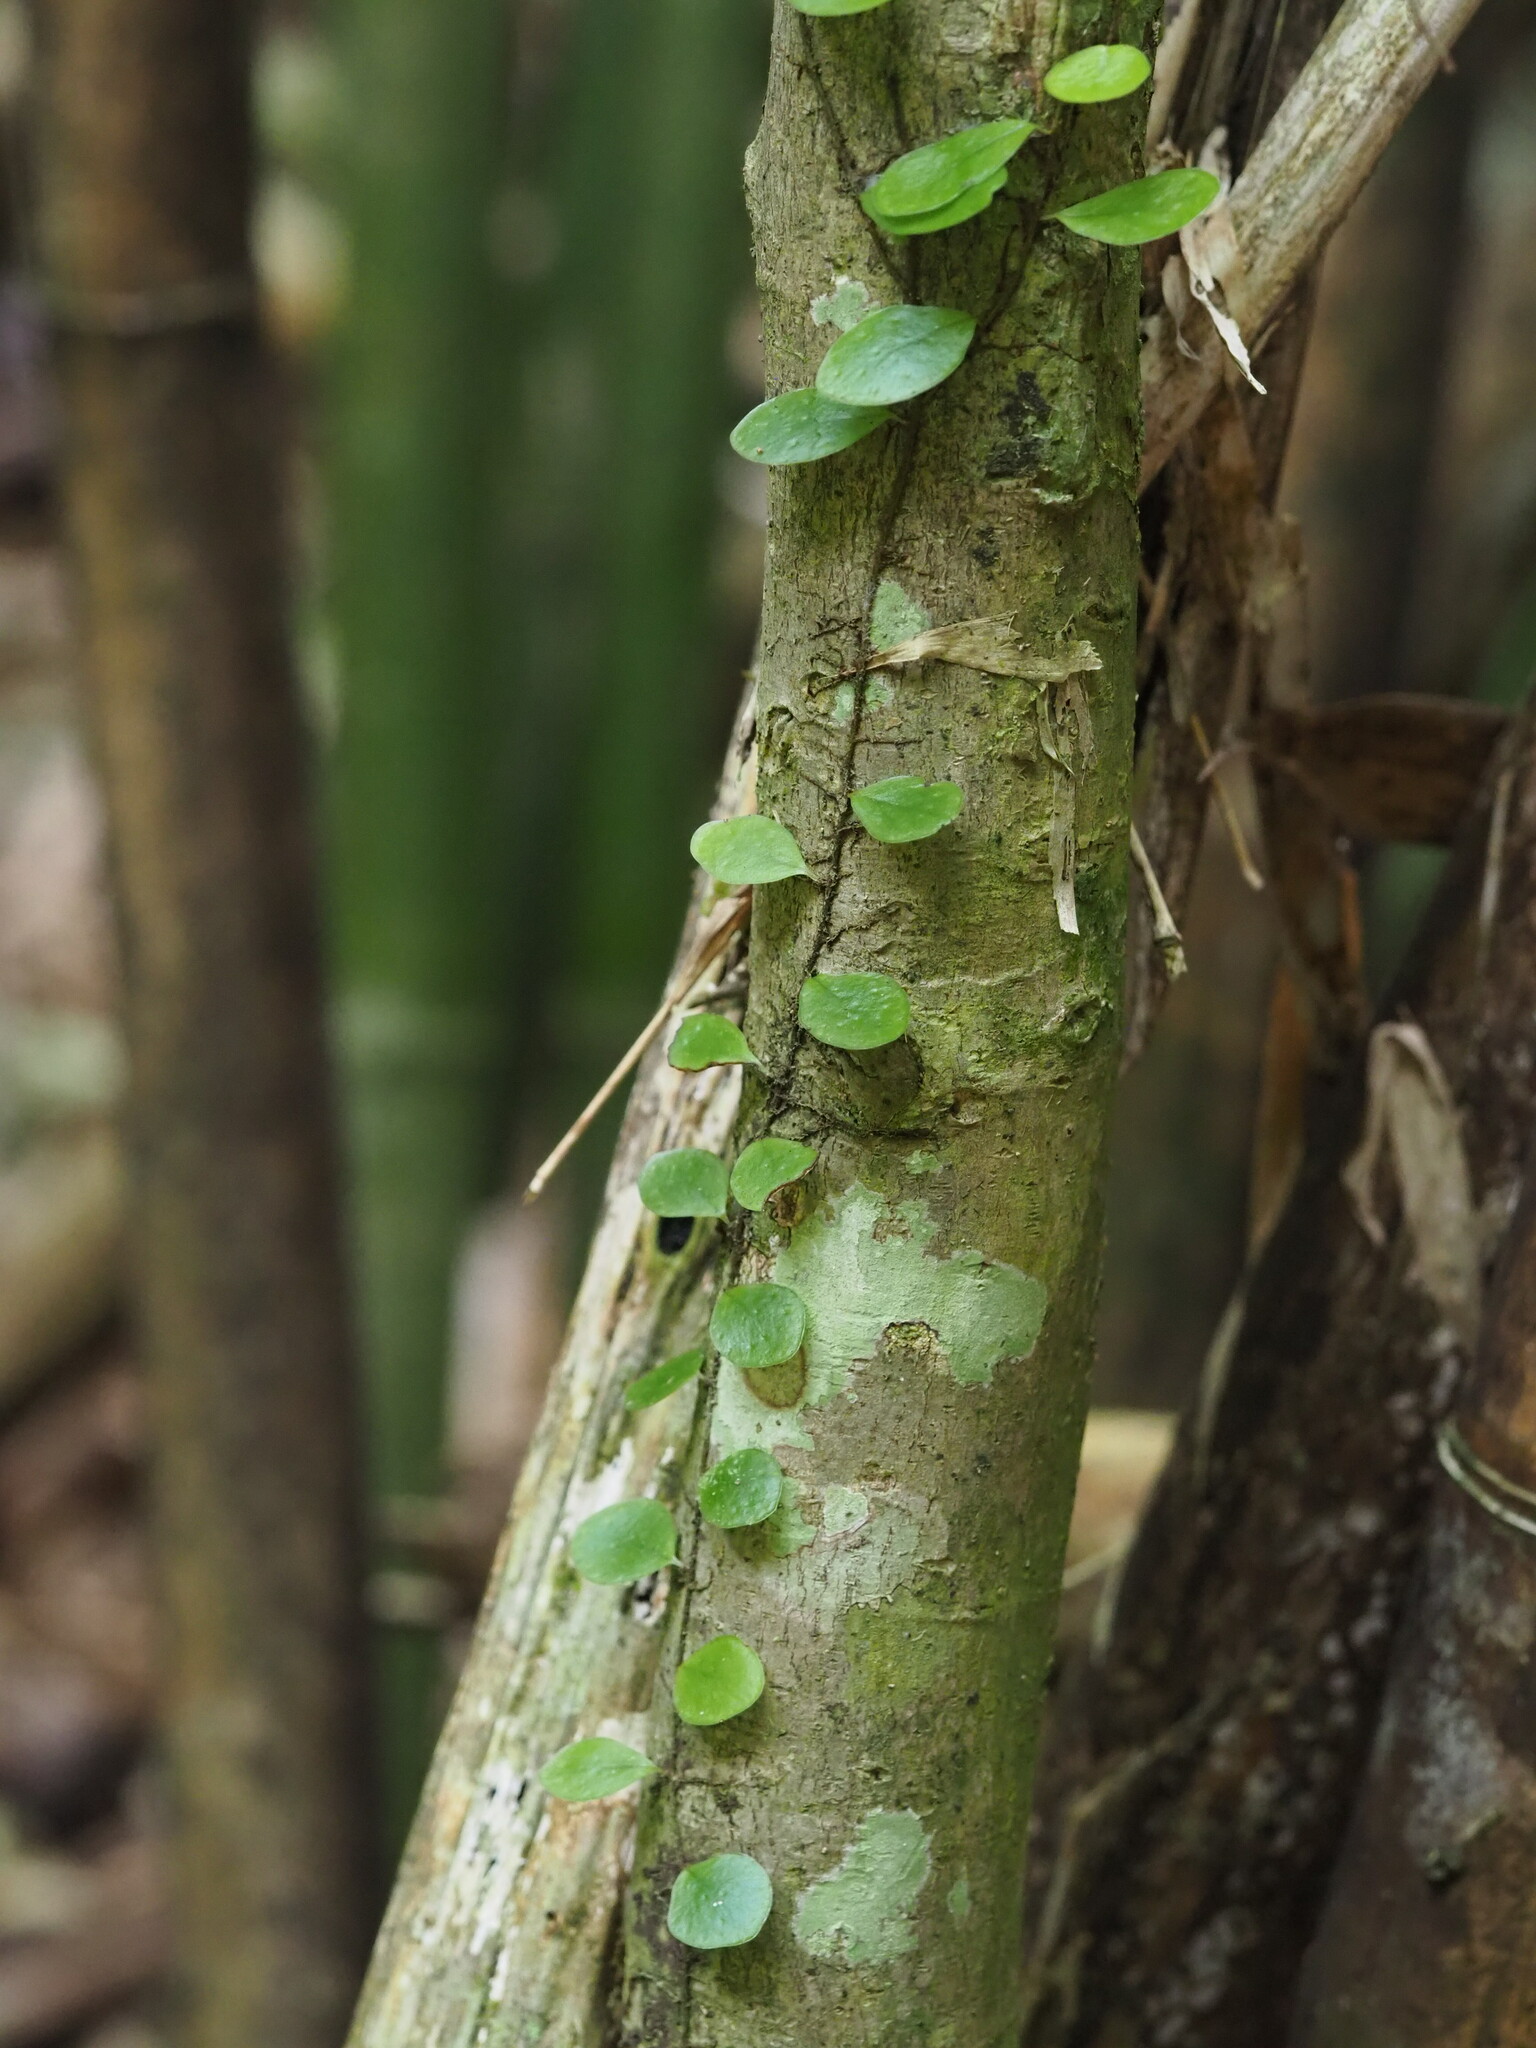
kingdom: Plantae
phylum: Tracheophyta
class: Polypodiopsida
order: Polypodiales
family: Polypodiaceae
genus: Lepisorus
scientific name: Lepisorus microphyllus
